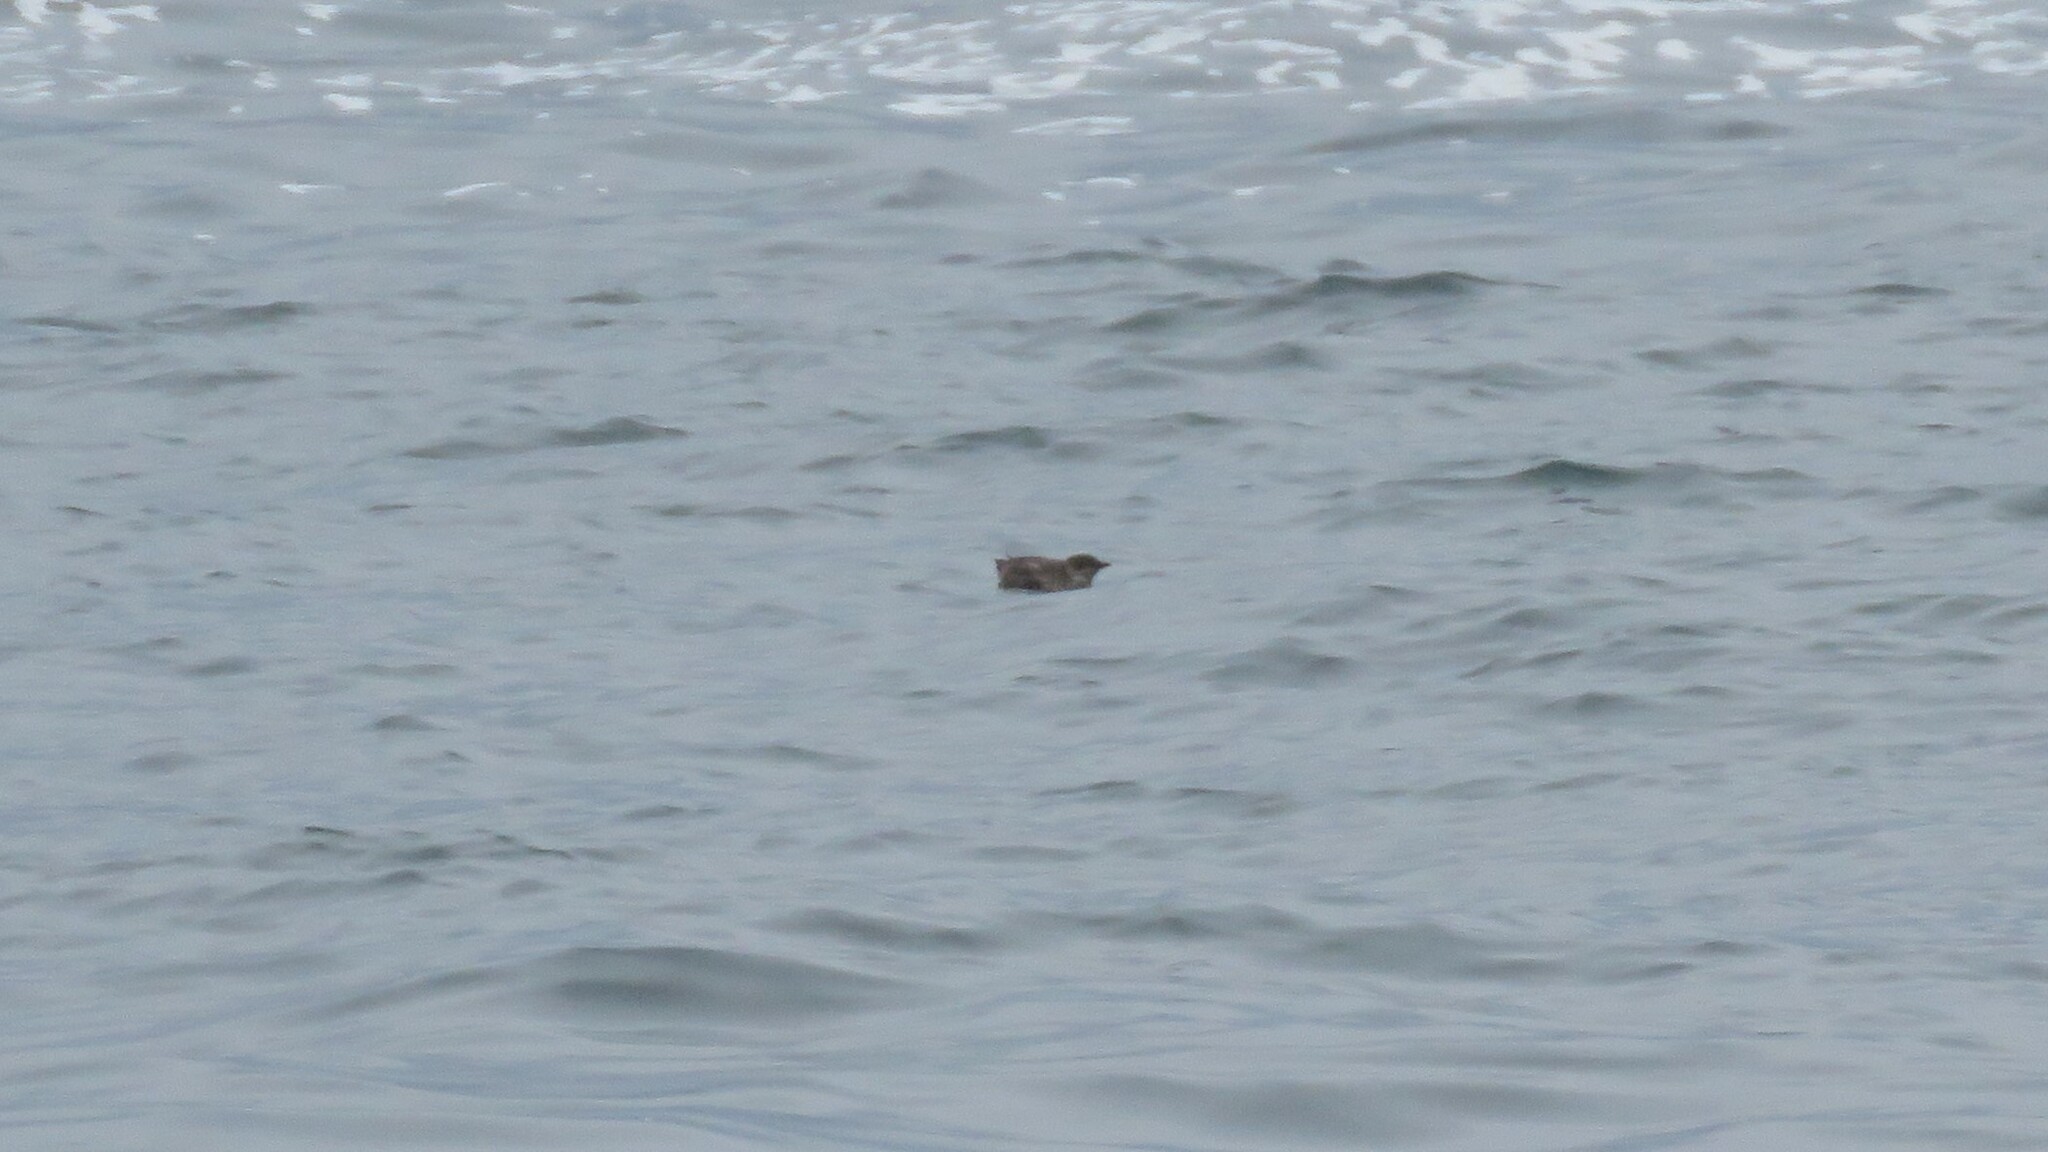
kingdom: Animalia
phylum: Chordata
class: Aves
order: Charadriiformes
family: Alcidae
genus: Brachyramphus
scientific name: Brachyramphus marmoratus
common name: Marbled murrelet
